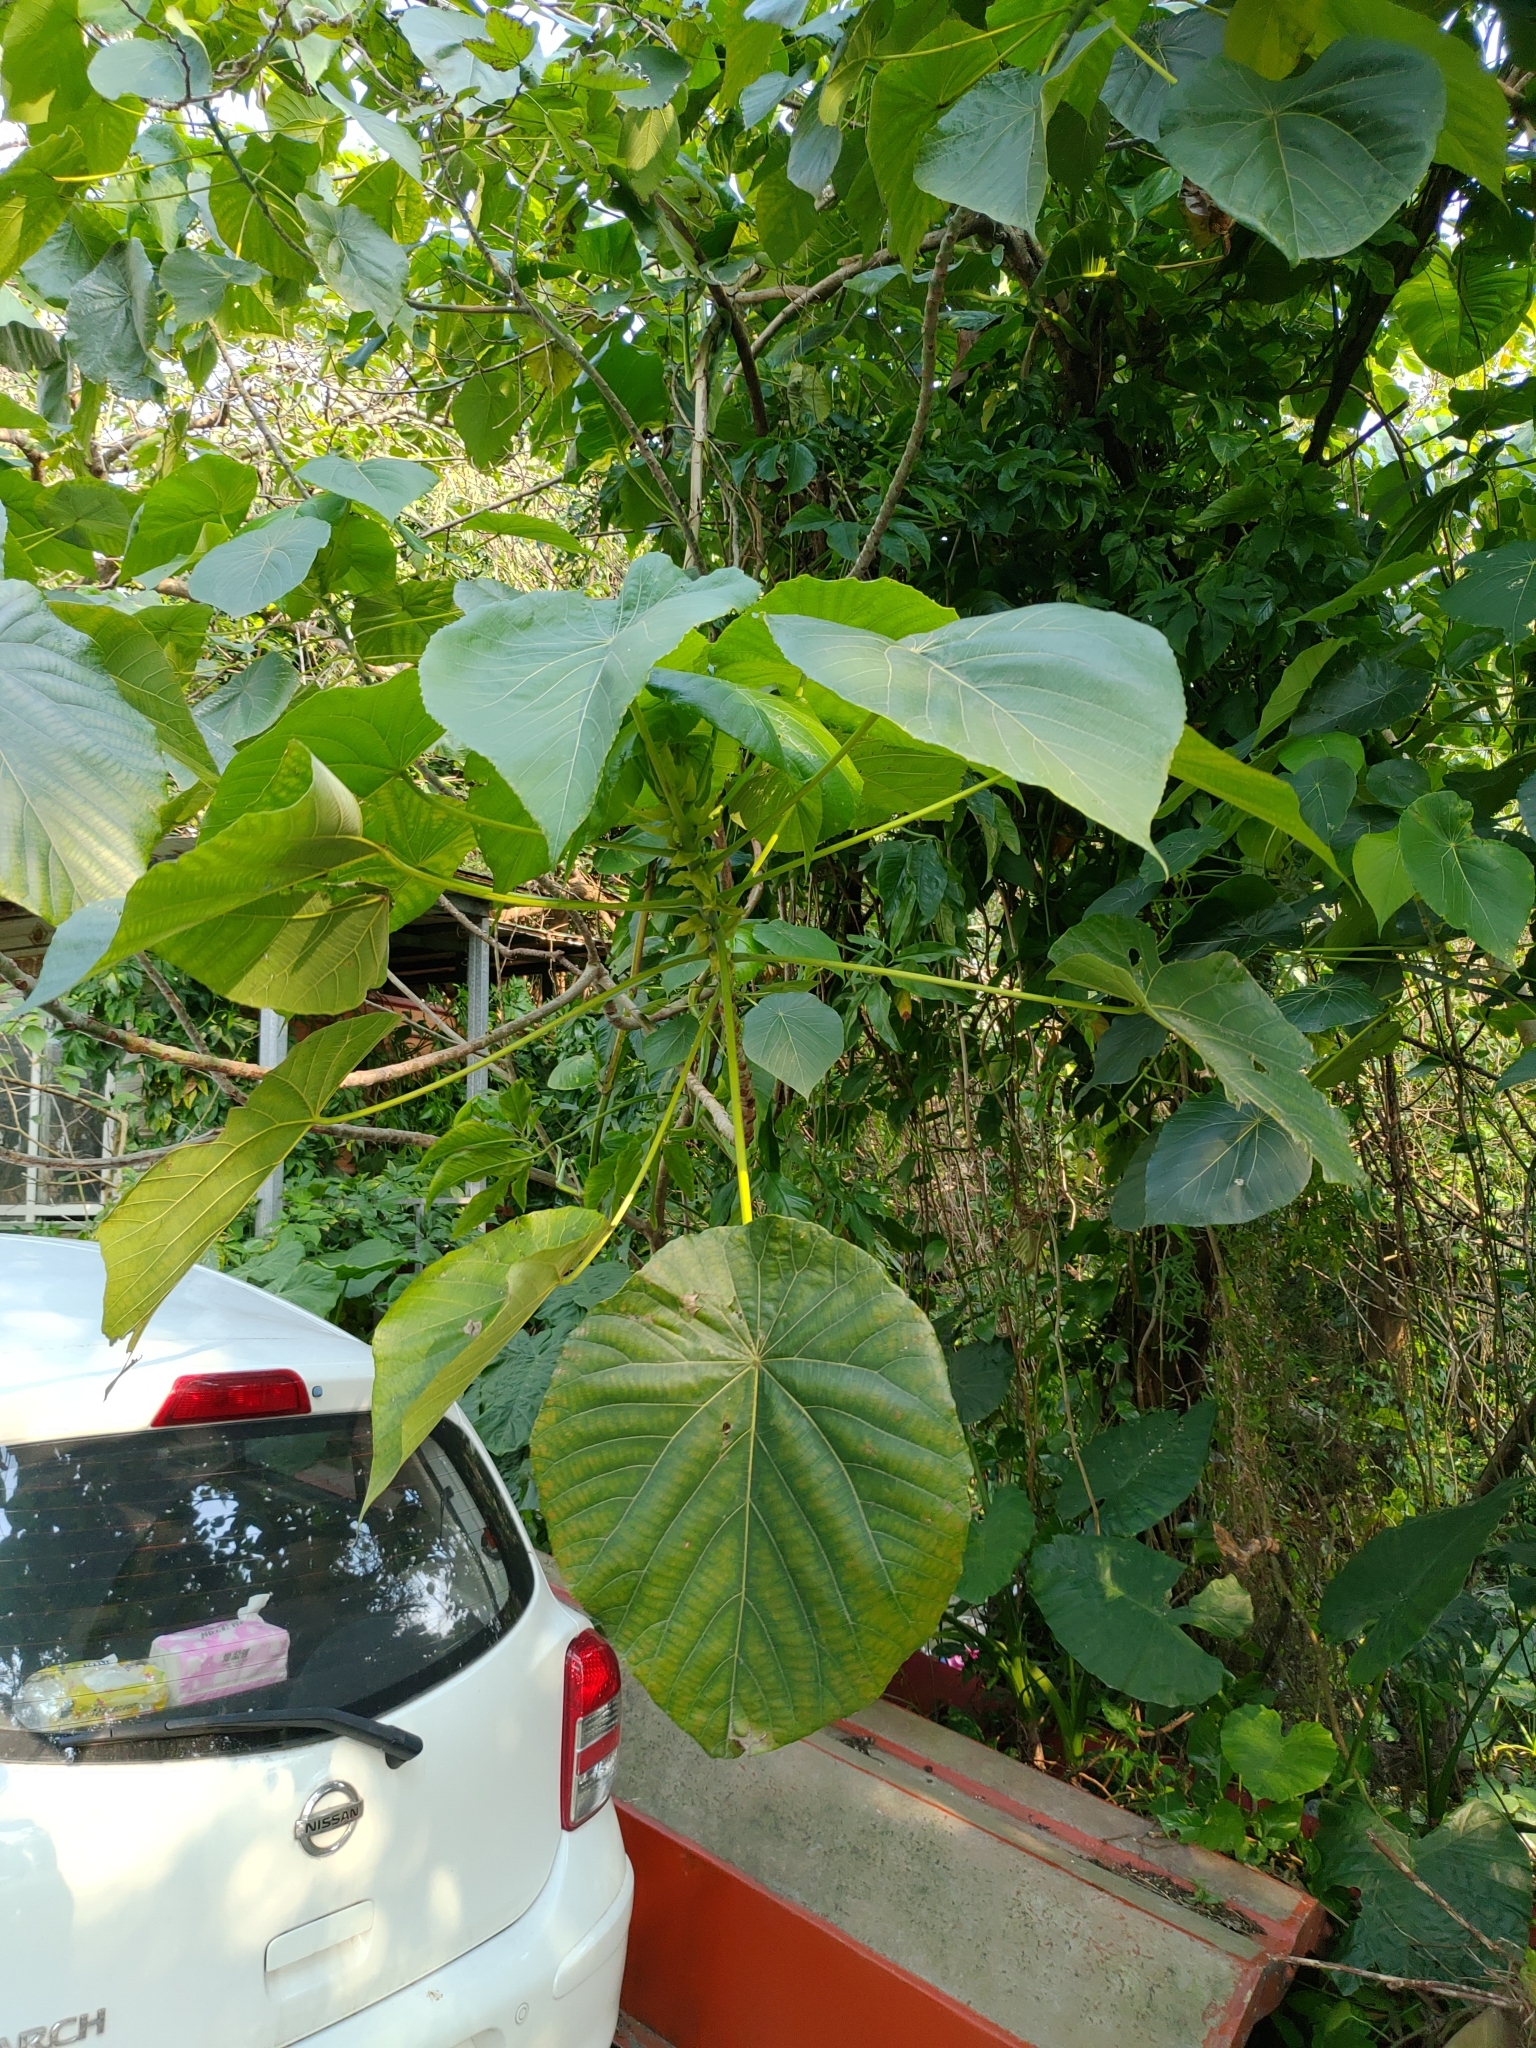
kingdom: Plantae
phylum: Tracheophyta
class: Magnoliopsida
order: Malpighiales
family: Euphorbiaceae
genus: Macaranga
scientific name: Macaranga tanarius
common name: Parasol leaf tree
